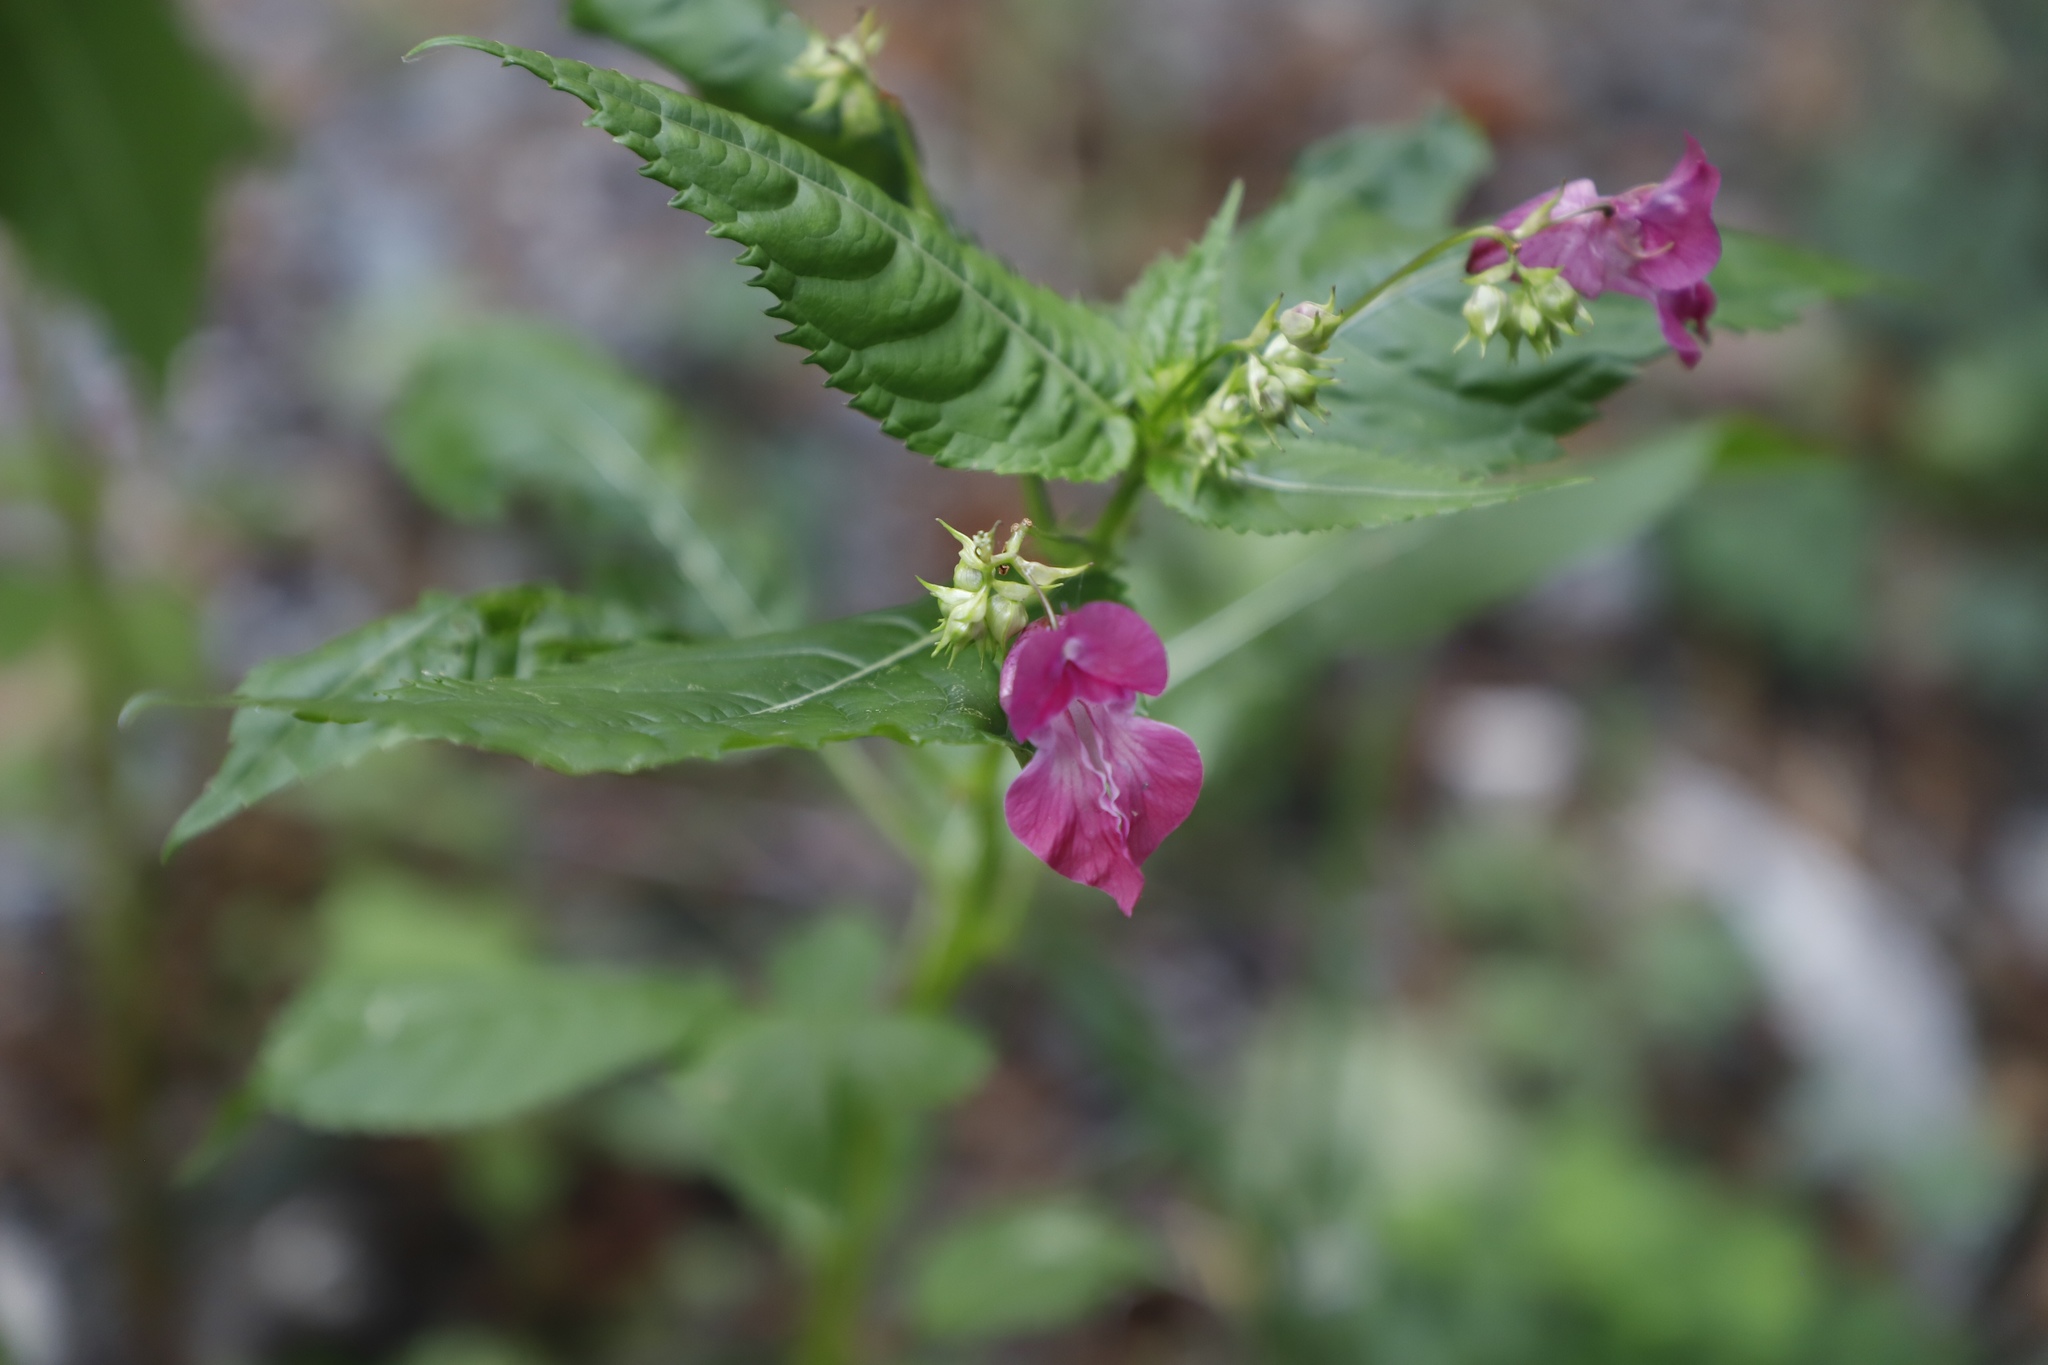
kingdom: Plantae
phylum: Tracheophyta
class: Magnoliopsida
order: Ericales
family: Balsaminaceae
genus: Impatiens
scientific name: Impatiens glandulifera
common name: Himalayan balsam
